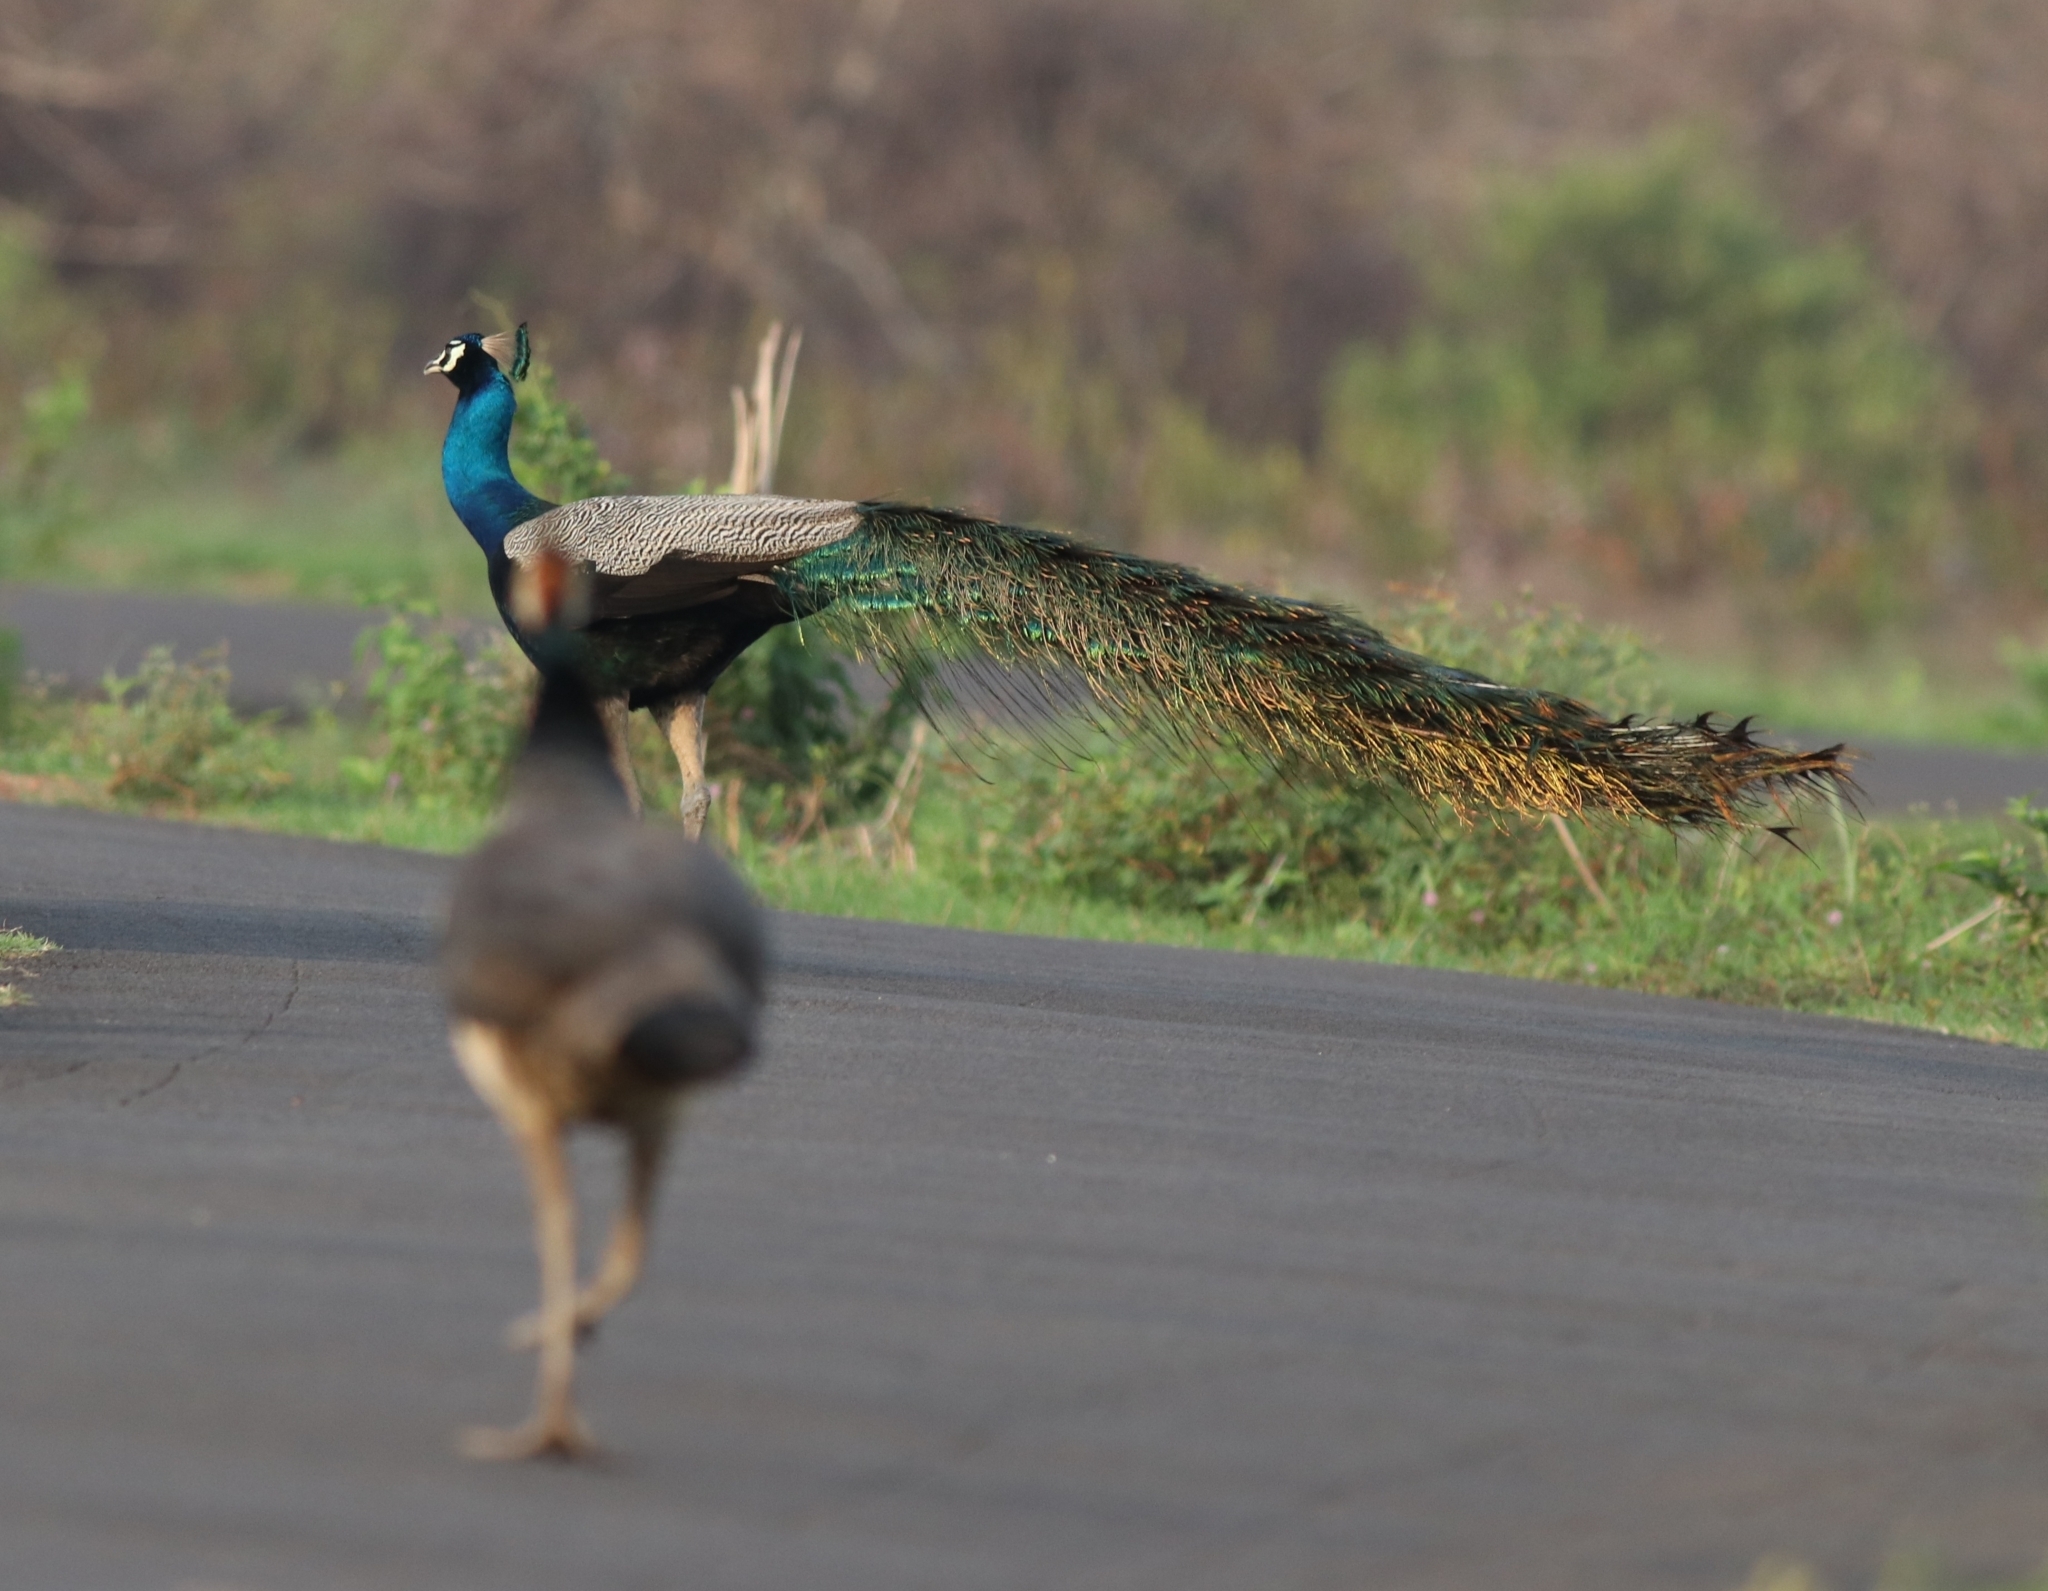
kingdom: Animalia
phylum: Chordata
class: Aves
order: Galliformes
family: Phasianidae
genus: Pavo
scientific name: Pavo cristatus
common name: Indian peafowl
